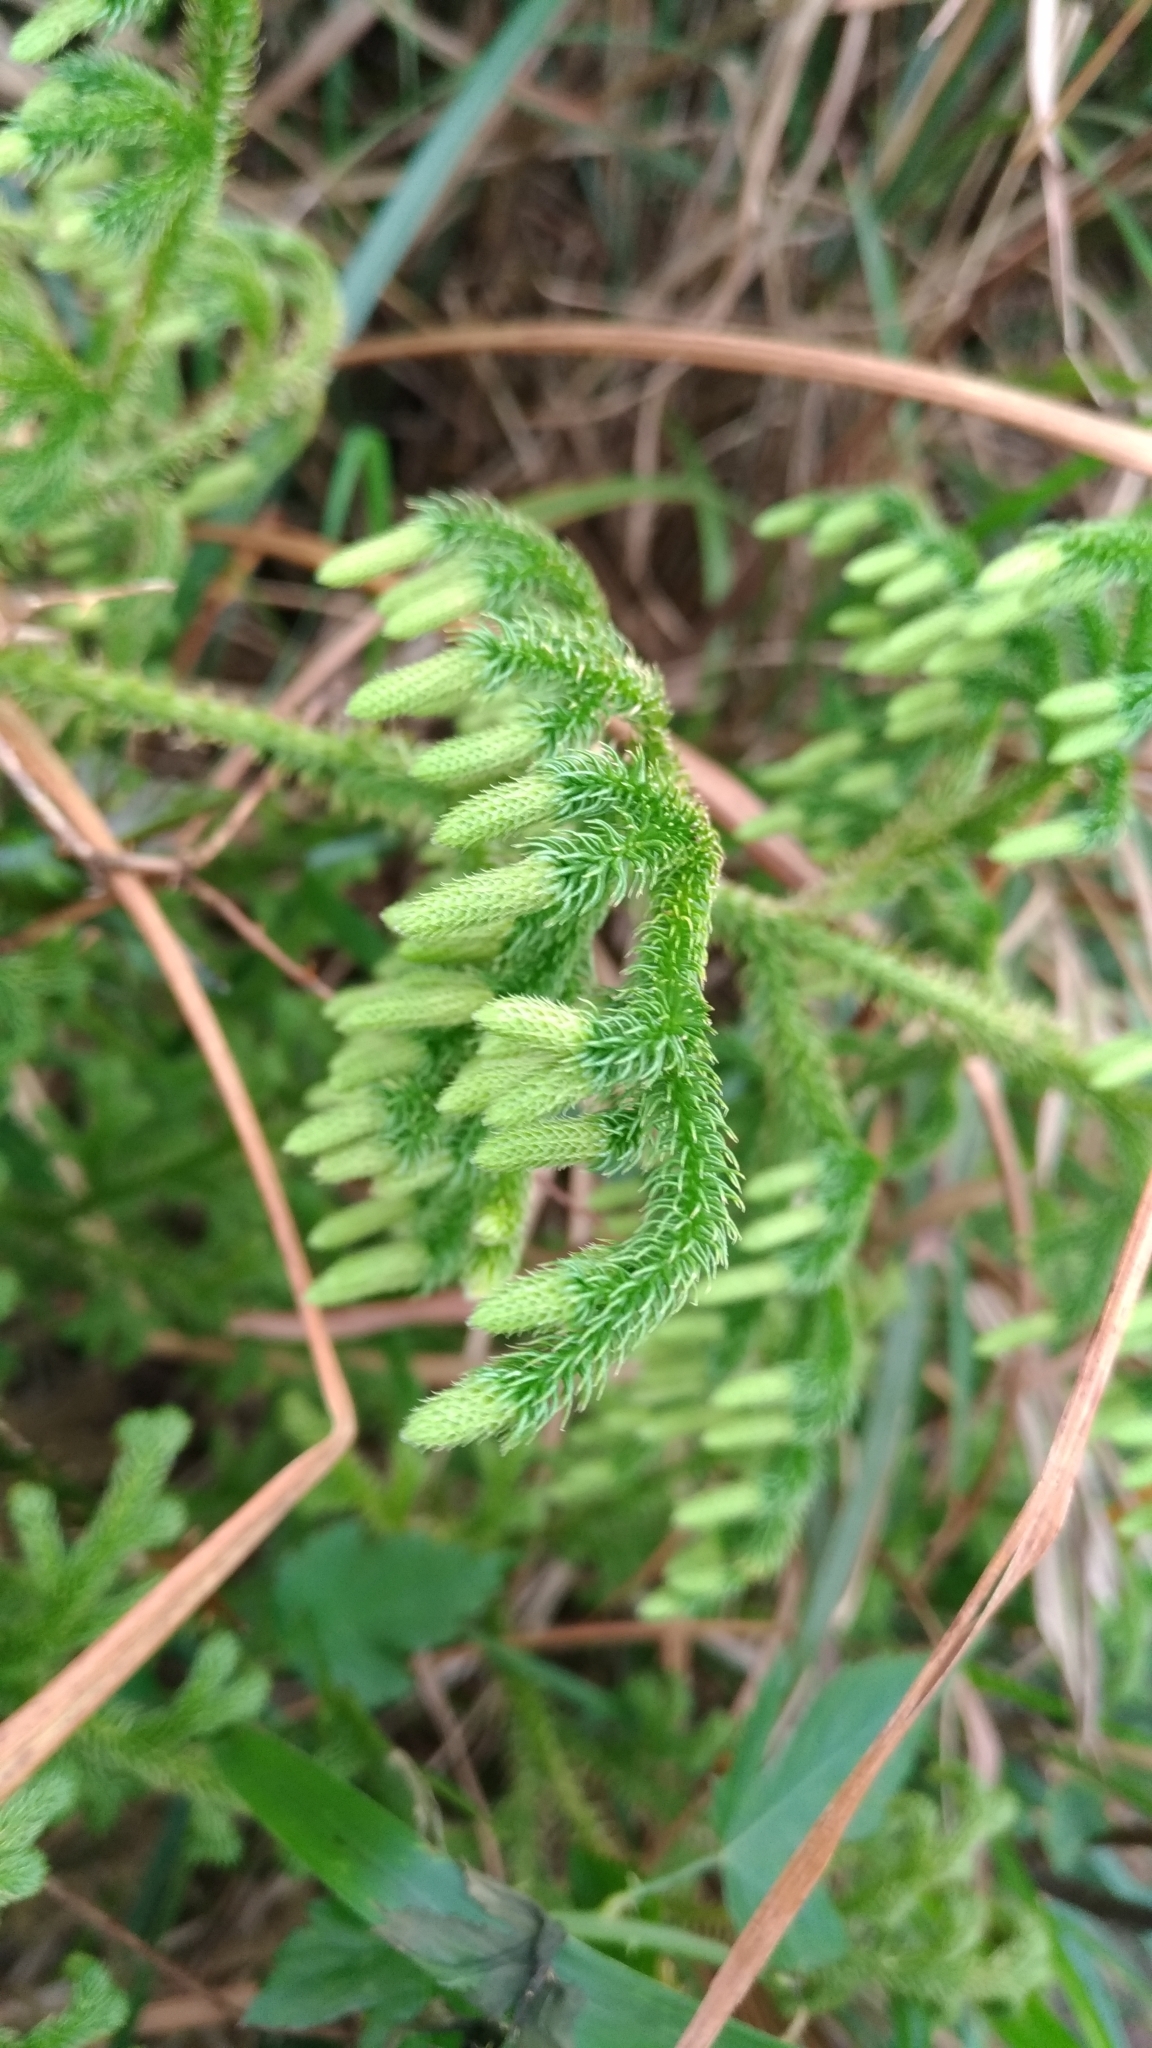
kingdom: Plantae
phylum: Tracheophyta
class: Lycopodiopsida
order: Lycopodiales
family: Lycopodiaceae
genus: Palhinhaea
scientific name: Palhinhaea cernua
